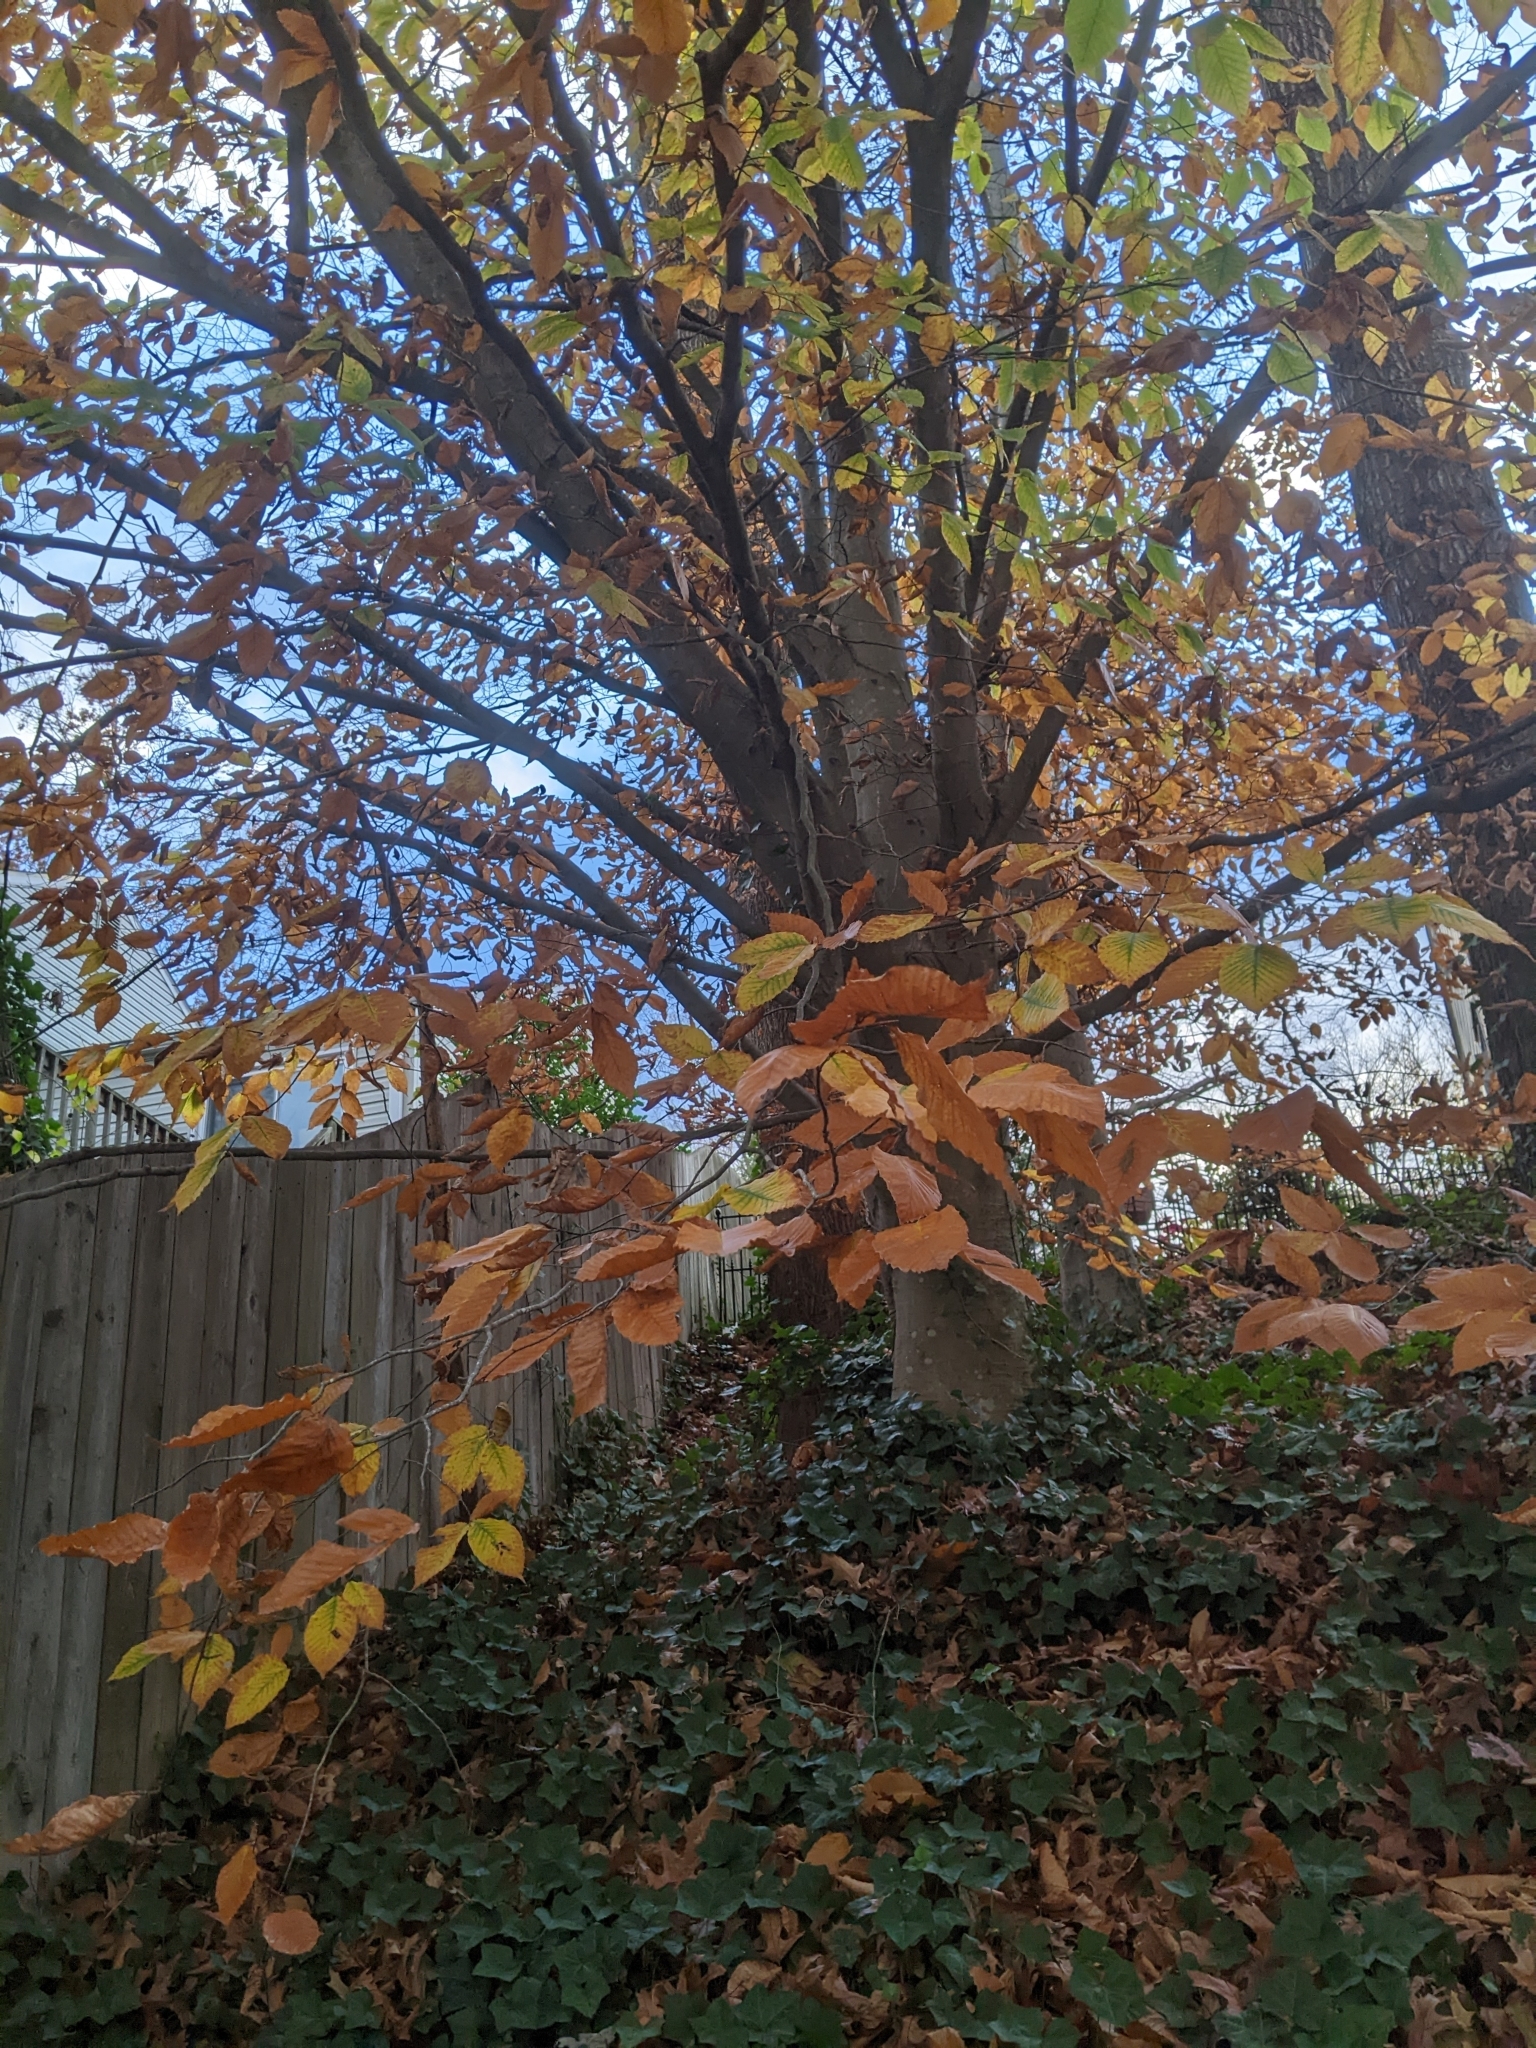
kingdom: Plantae
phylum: Tracheophyta
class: Magnoliopsida
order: Fagales
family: Fagaceae
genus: Fagus
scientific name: Fagus grandifolia
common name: American beech
